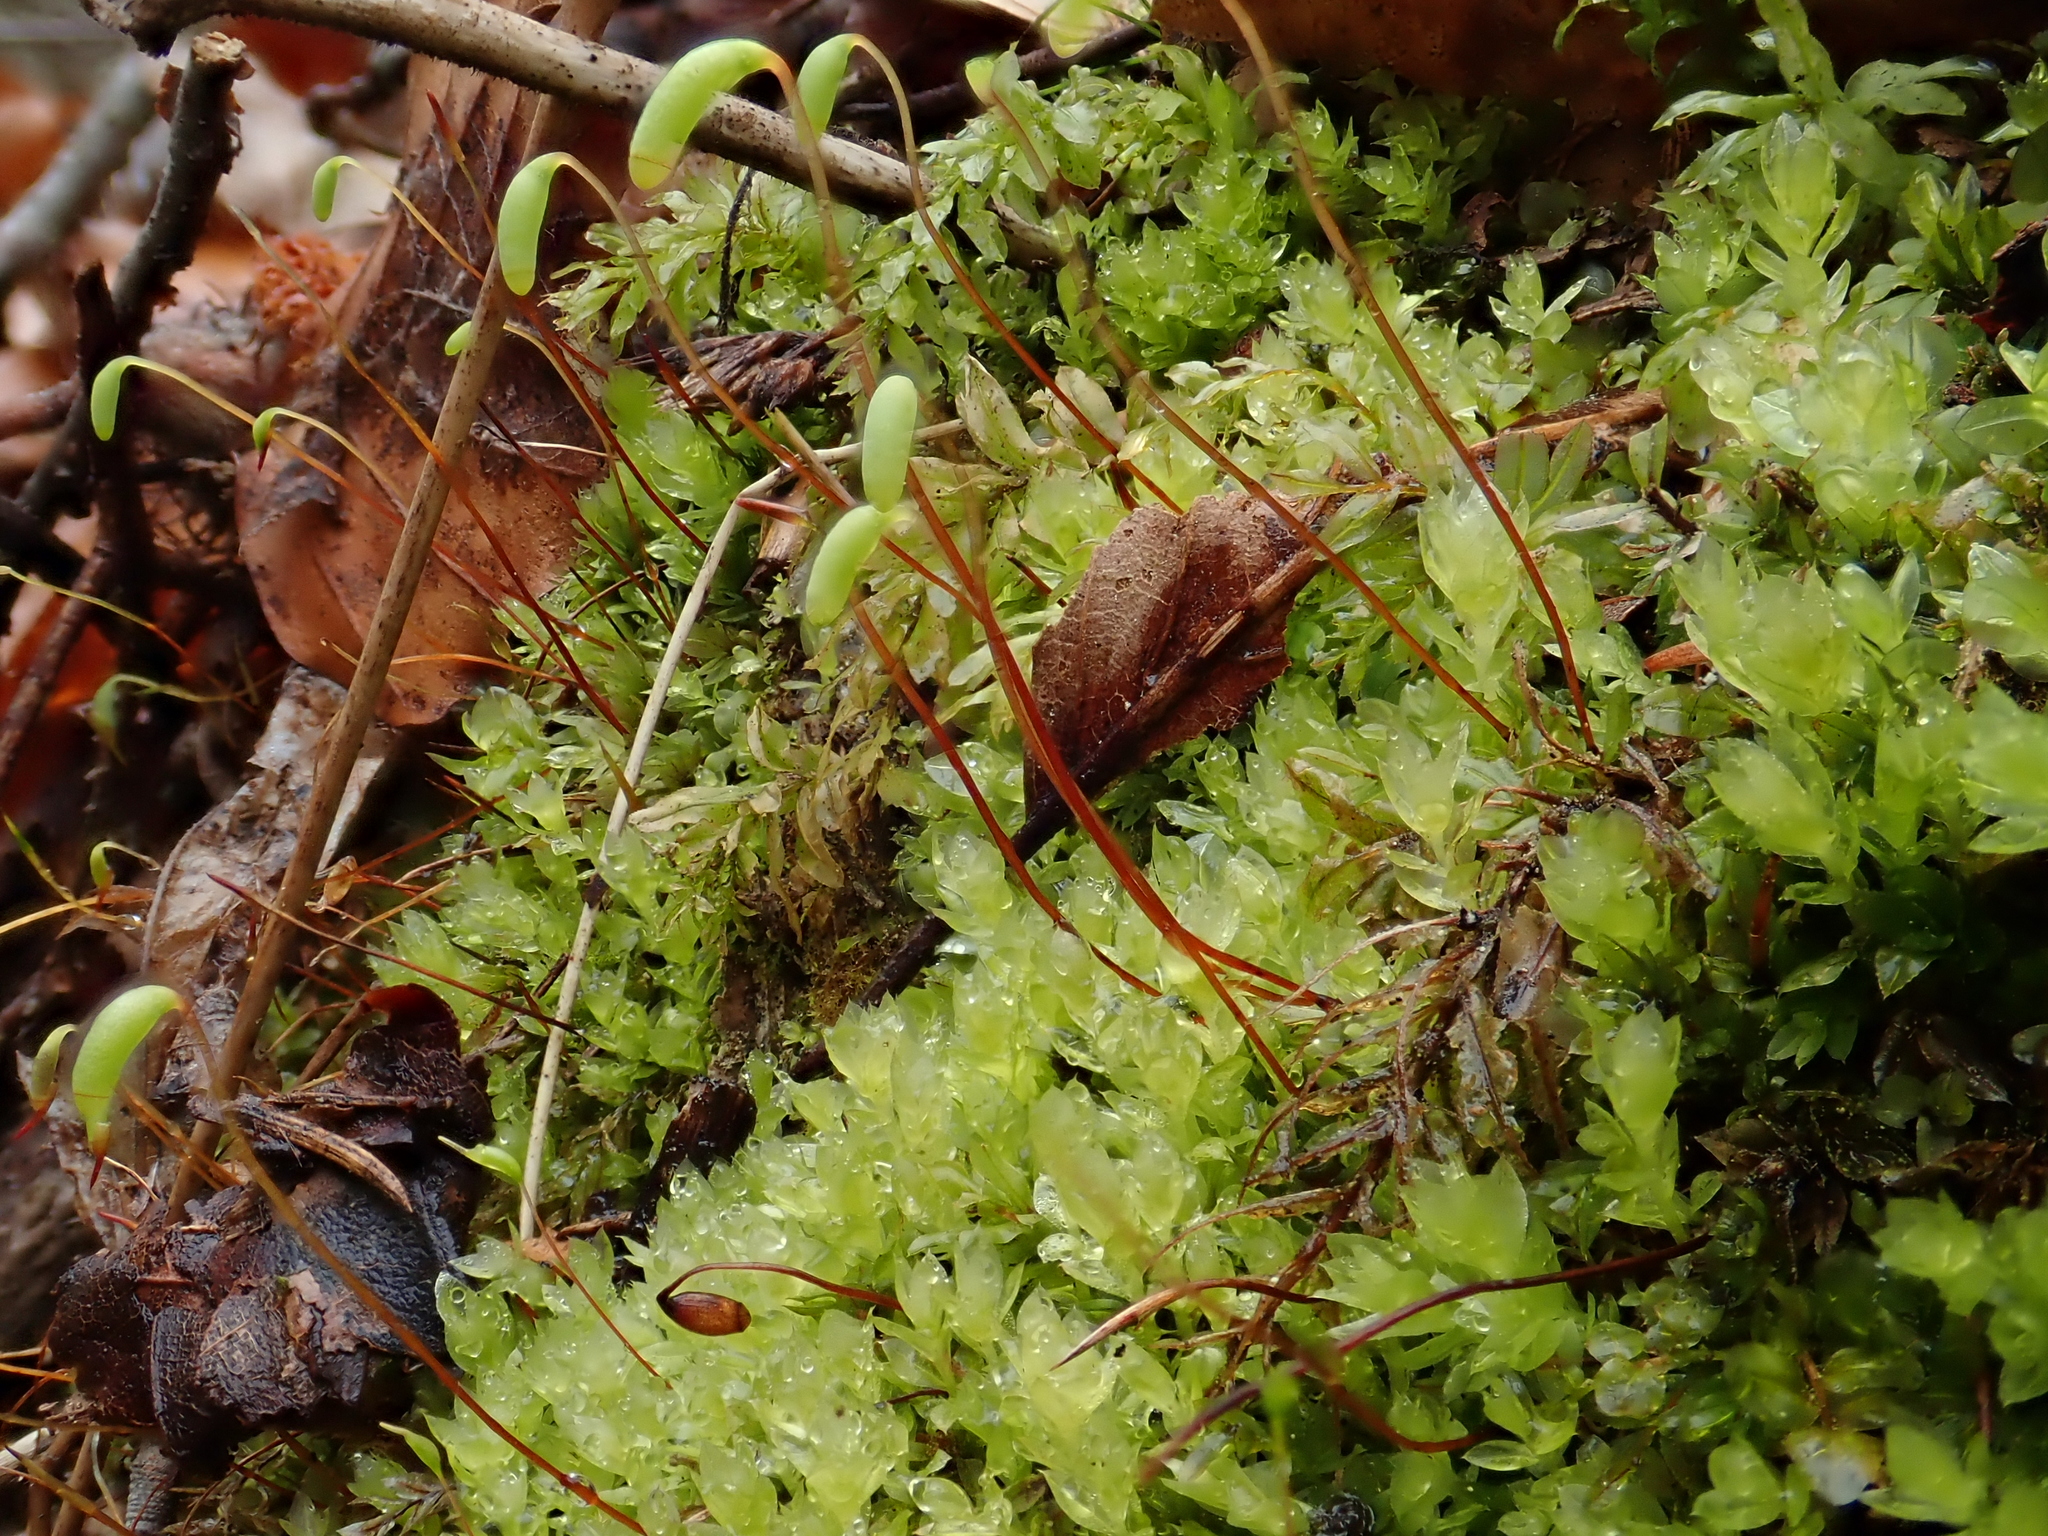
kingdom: Plantae
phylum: Bryophyta
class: Bryopsida
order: Bryales
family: Mniaceae
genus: Mnium
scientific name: Mnium marginatum
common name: Bordered leafy moss
